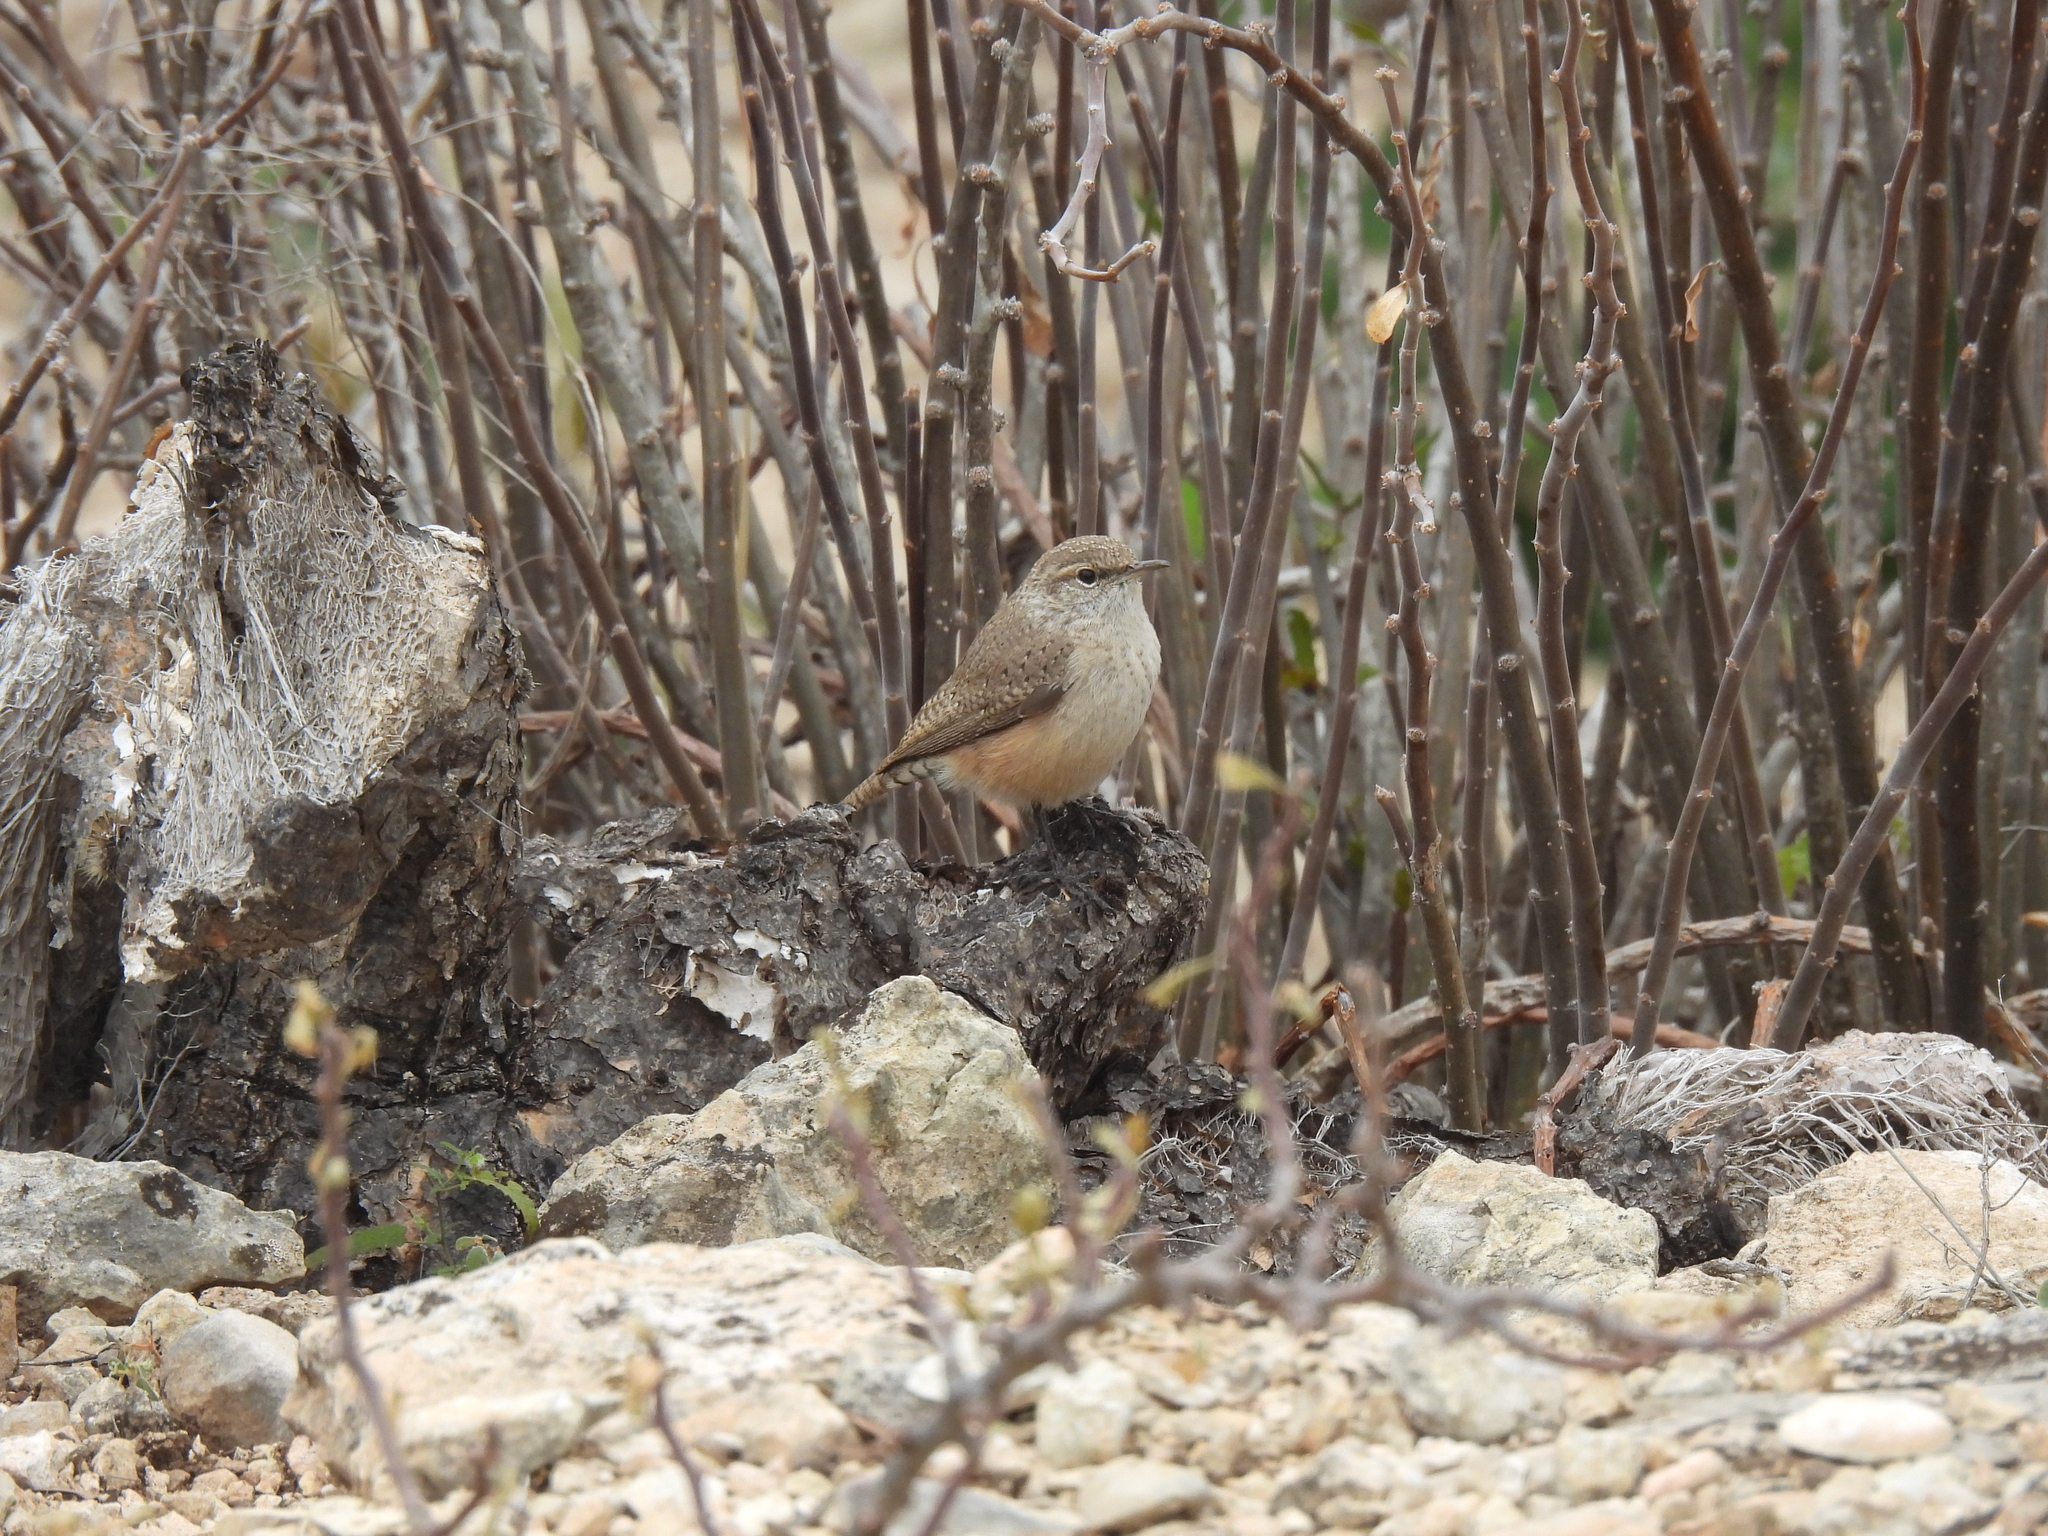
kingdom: Animalia
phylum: Chordata
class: Aves
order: Passeriformes
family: Troglodytidae
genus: Salpinctes
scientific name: Salpinctes obsoletus
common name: Rock wren
